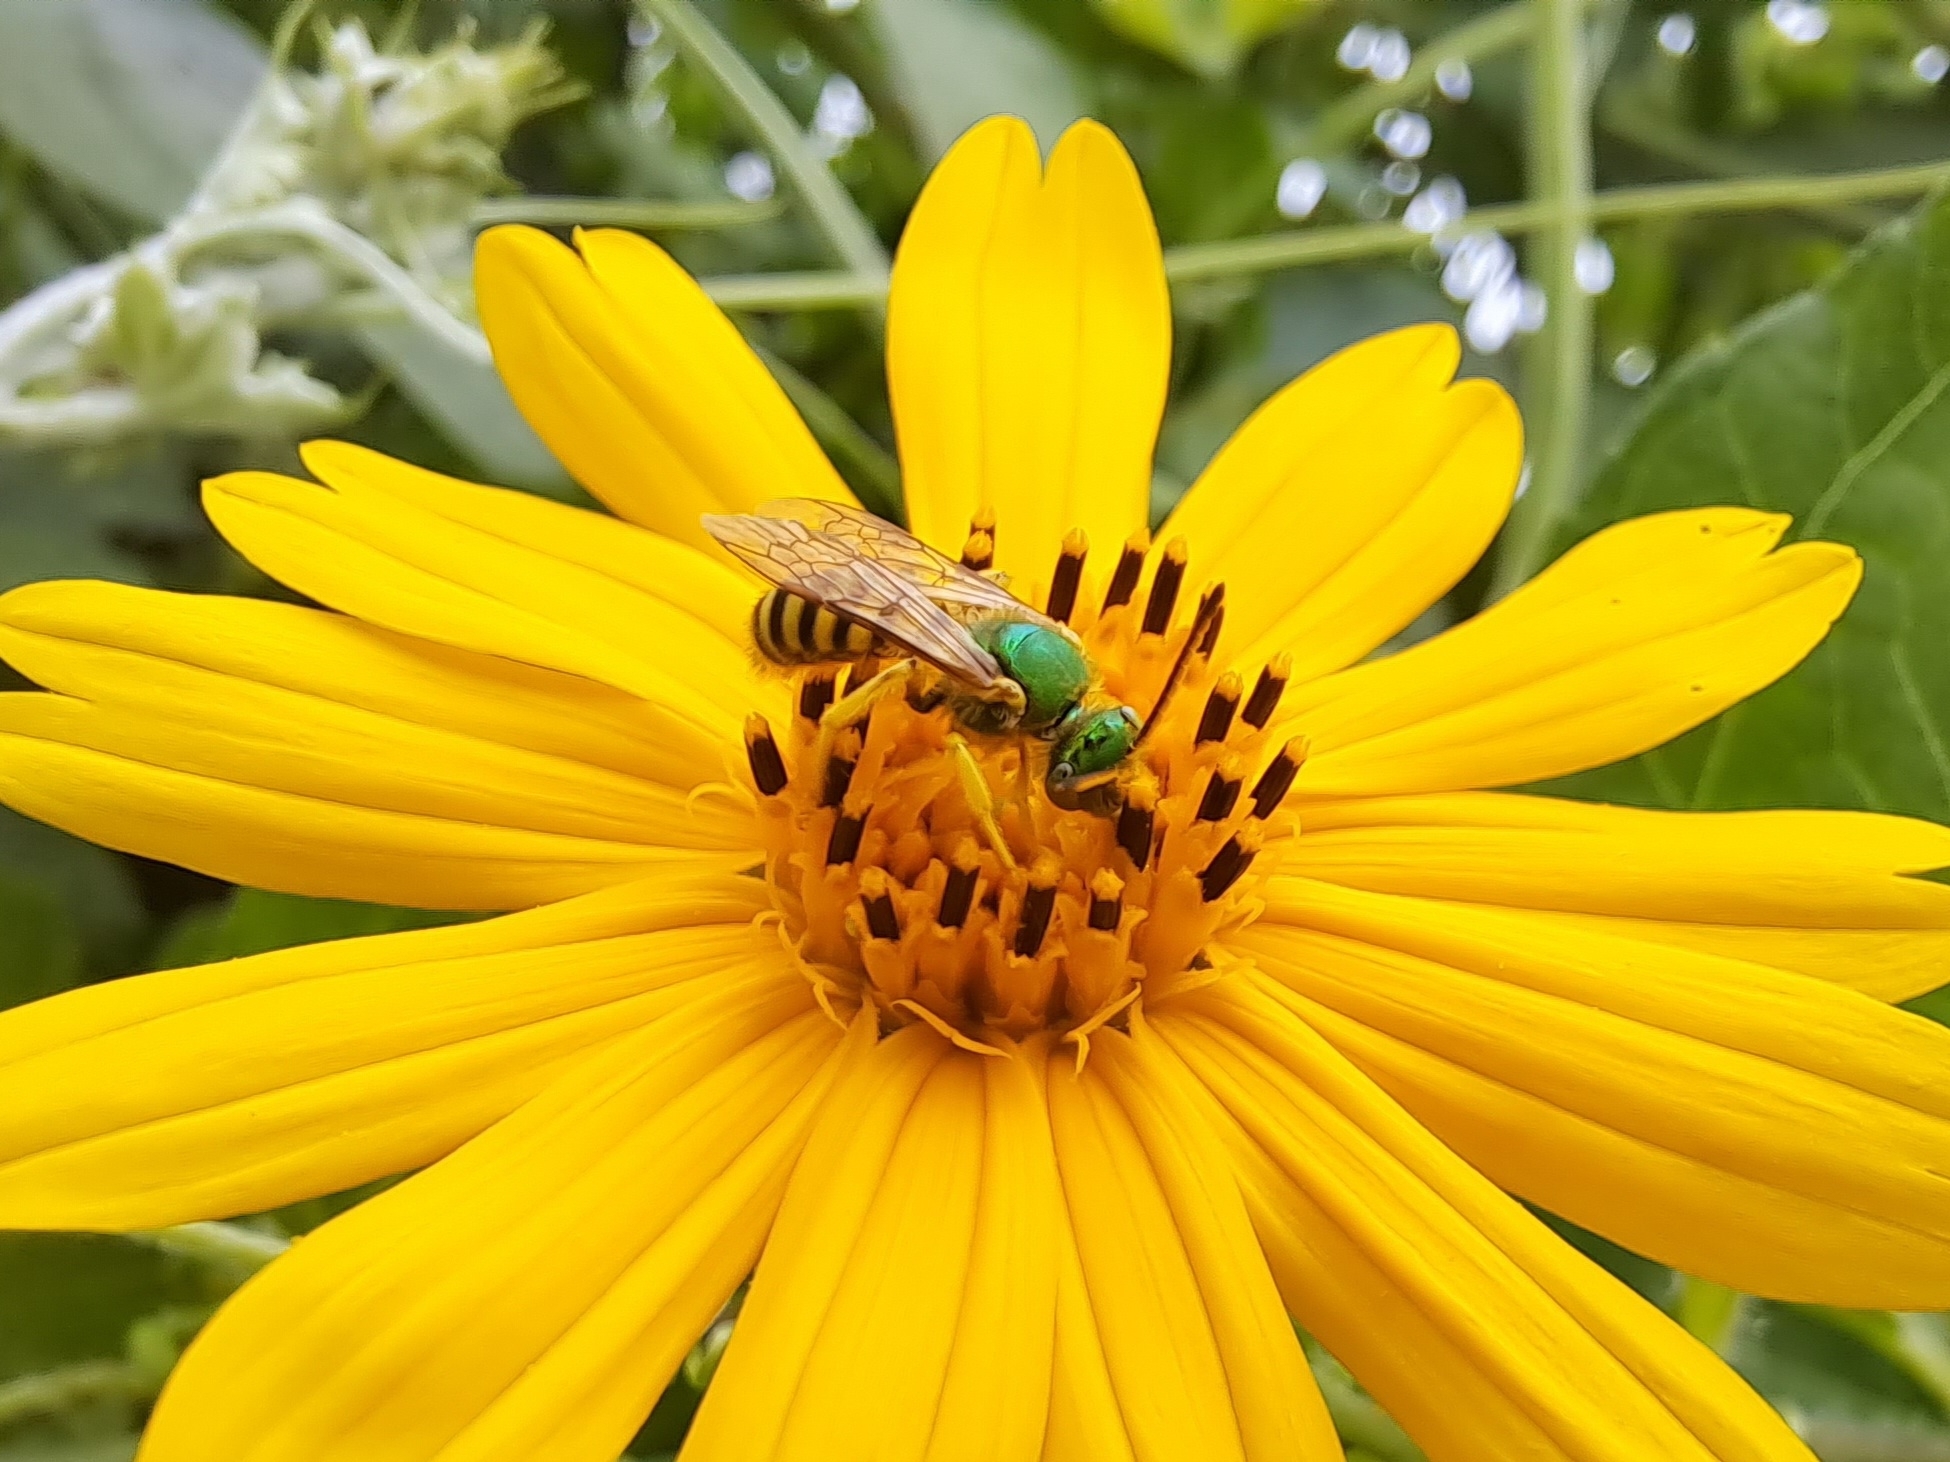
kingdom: Animalia
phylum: Arthropoda
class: Insecta
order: Hymenoptera
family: Halictidae
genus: Agapostemon
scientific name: Agapostemon nasutus
